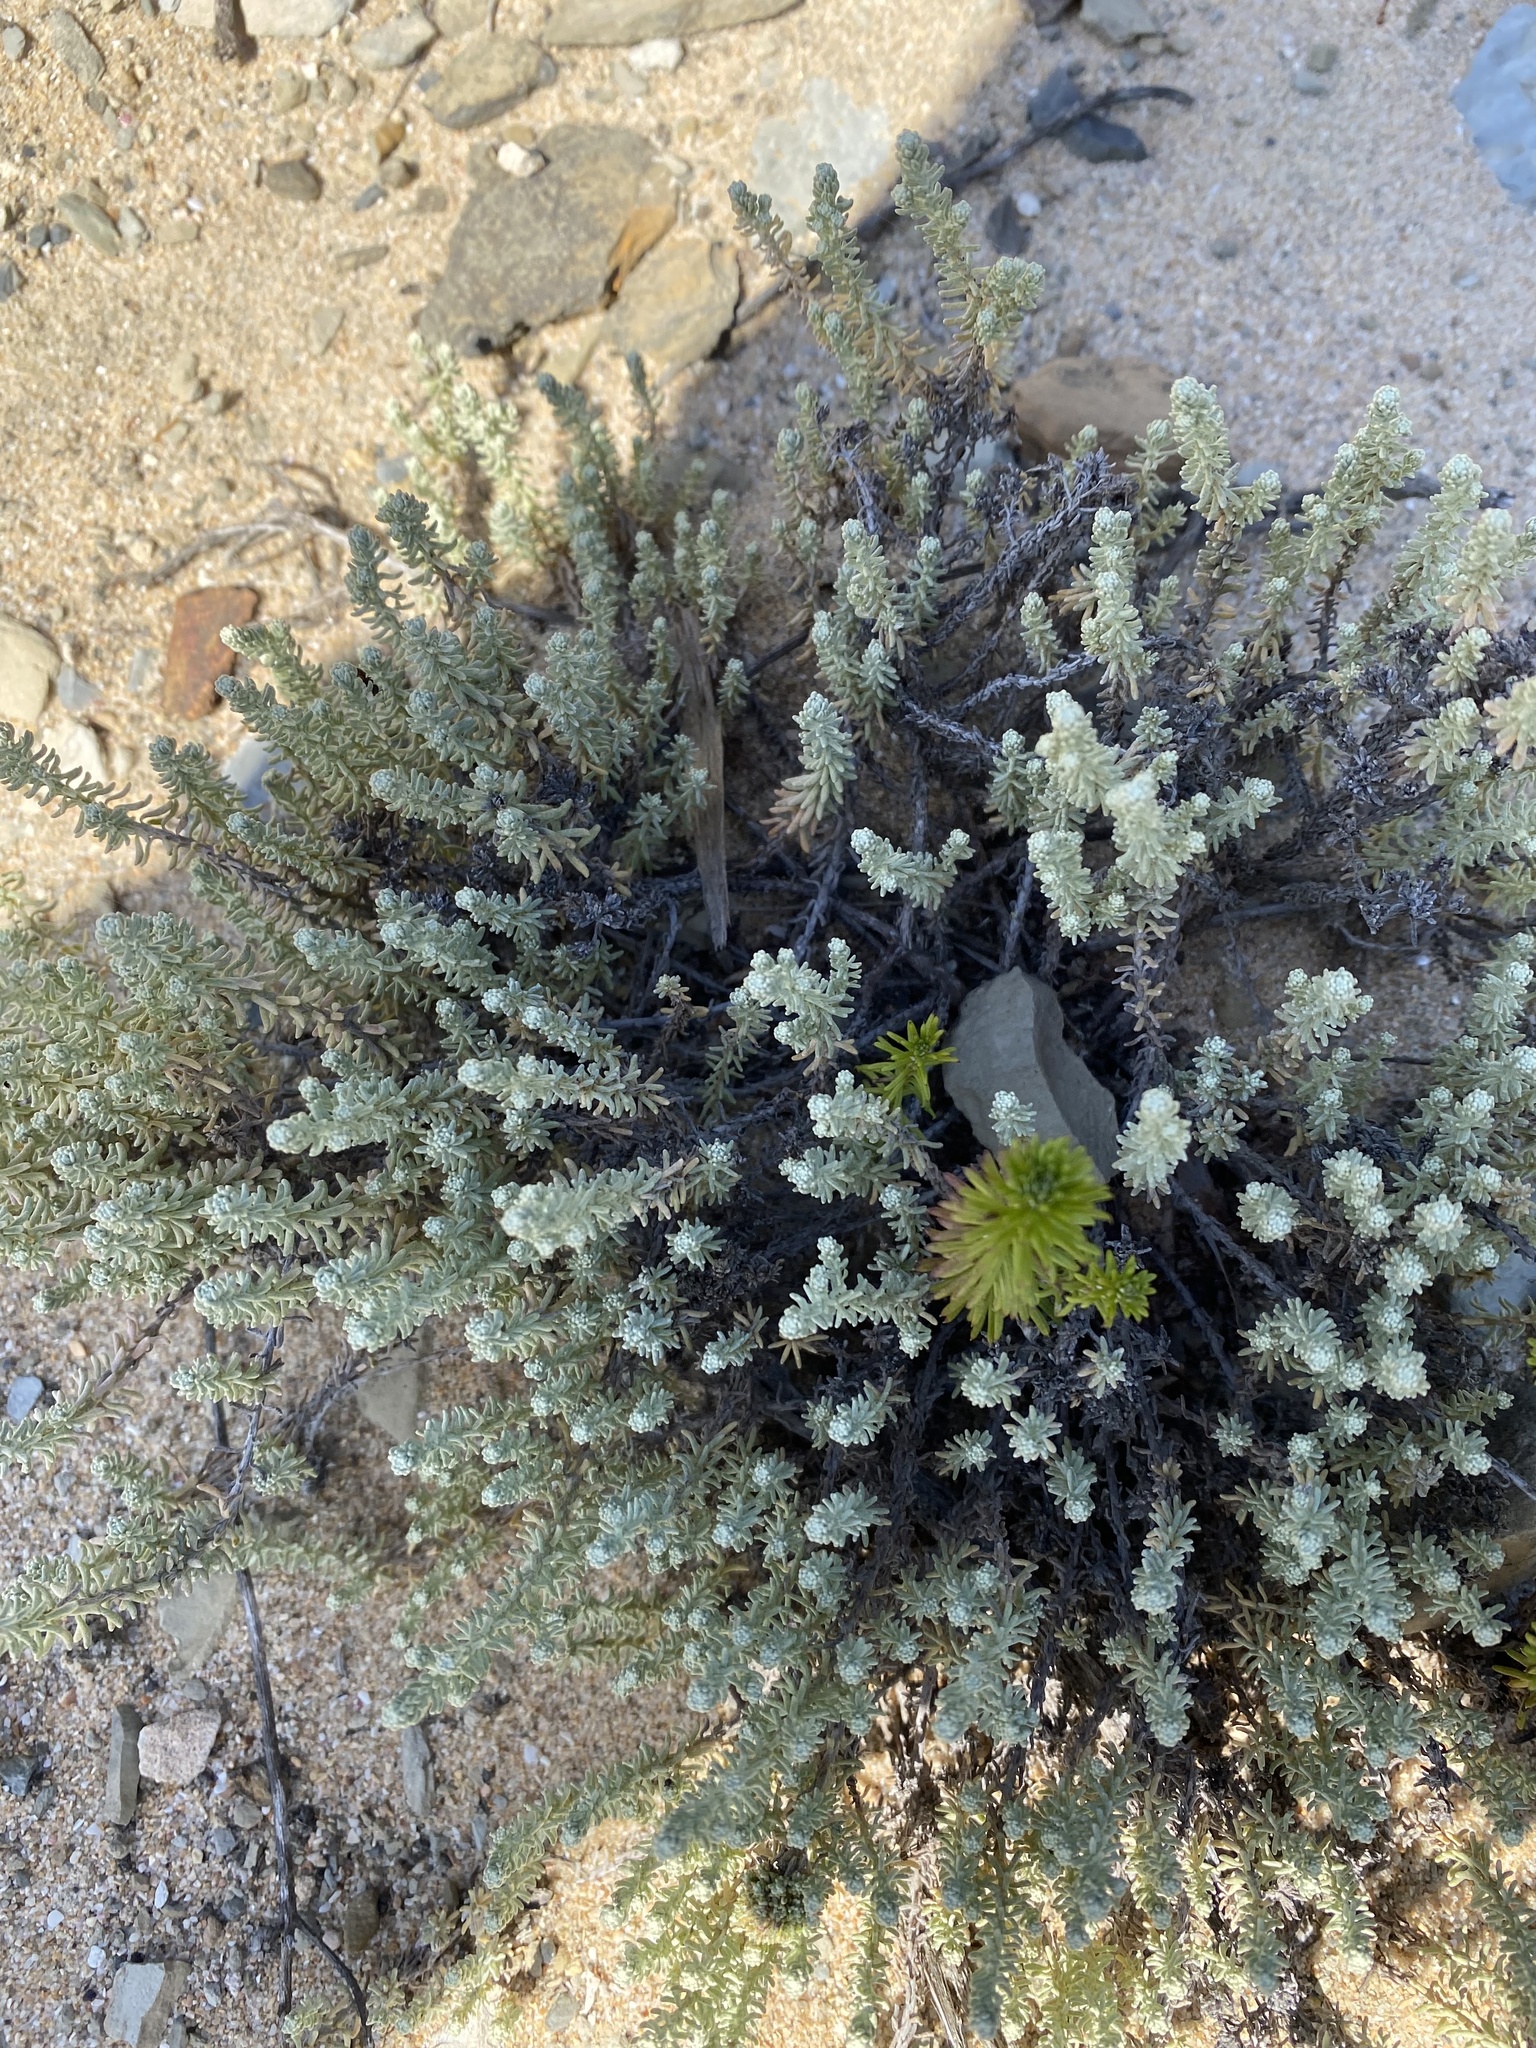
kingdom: Plantae
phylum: Tracheophyta
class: Magnoliopsida
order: Asterales
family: Asteraceae
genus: Helichrysum
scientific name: Helichrysum niveum
